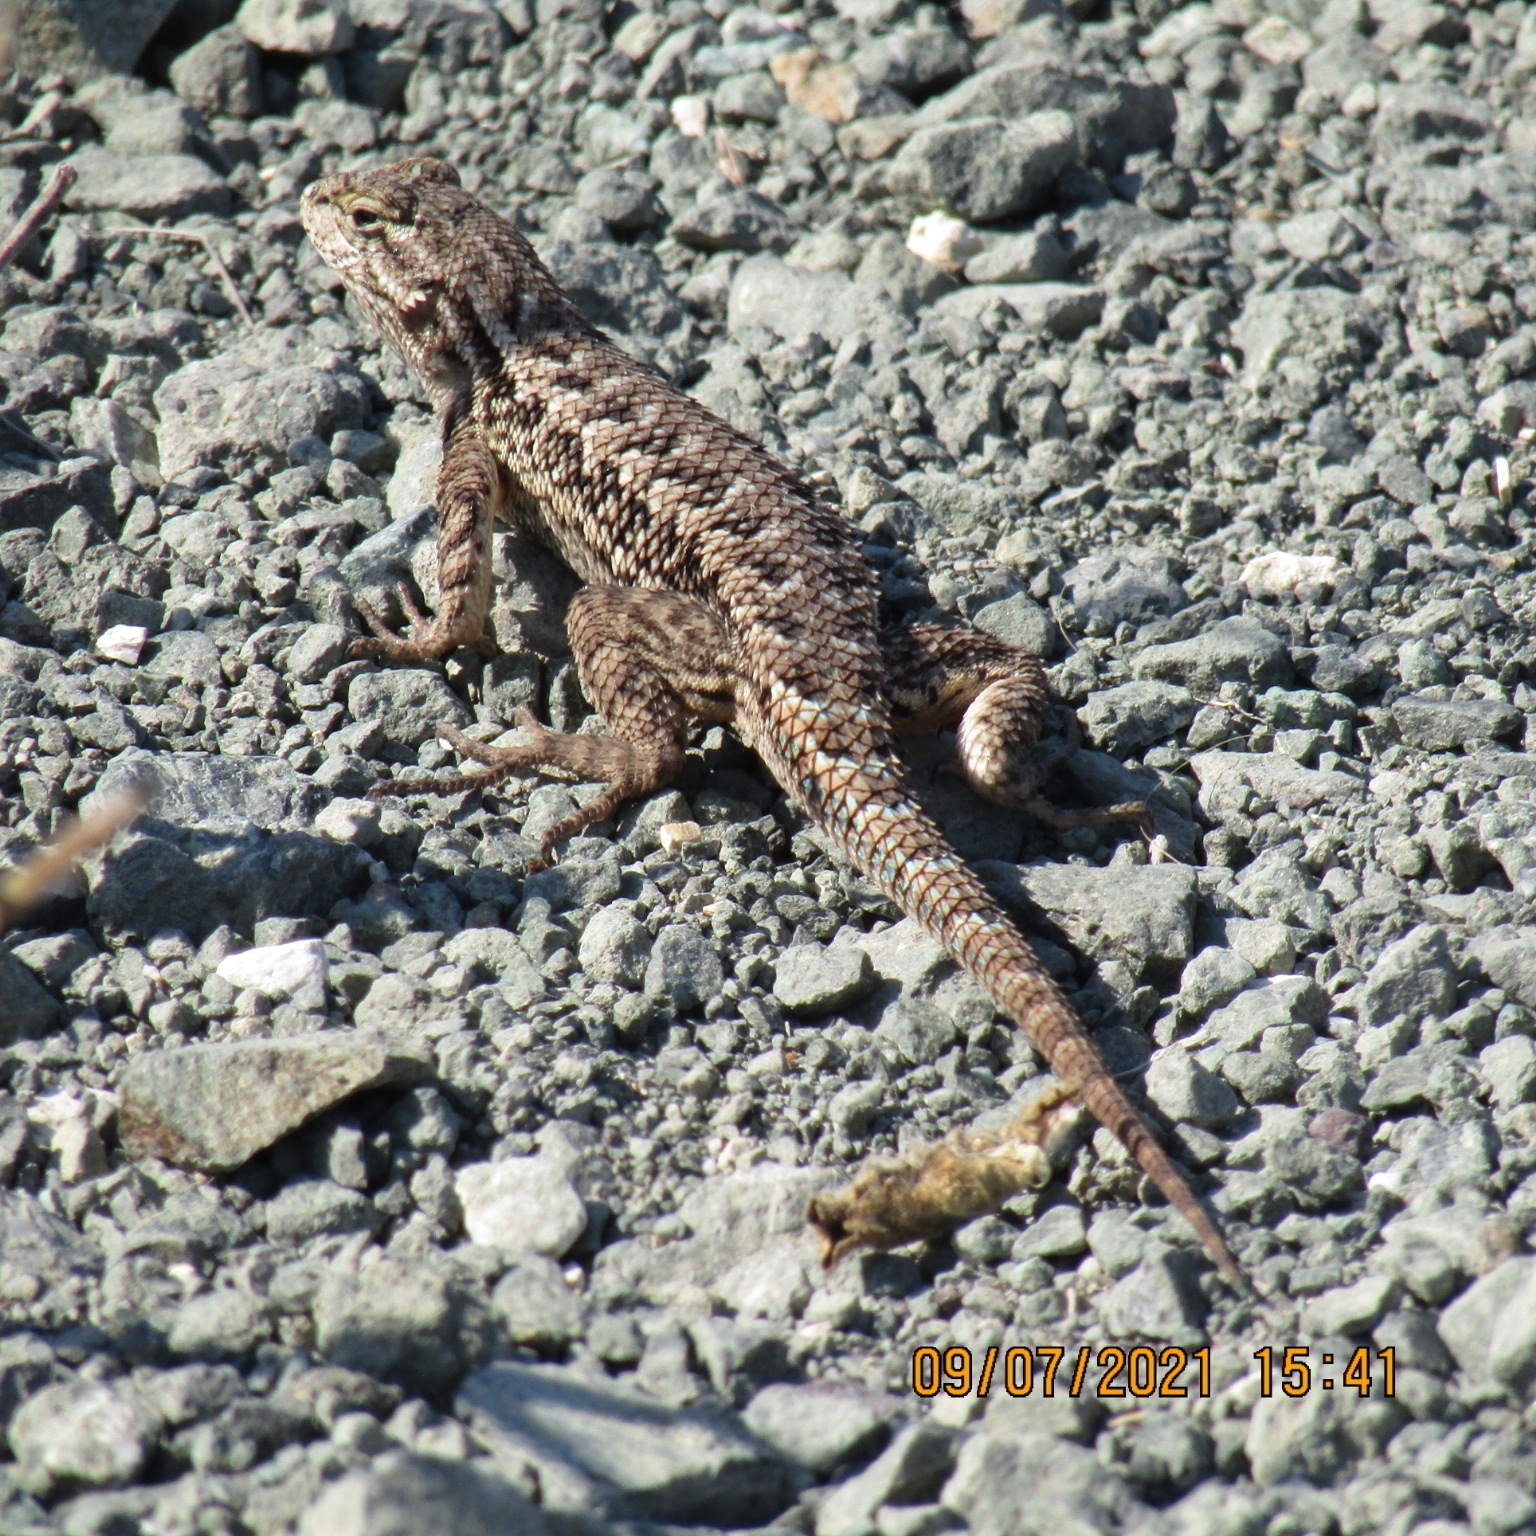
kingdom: Animalia
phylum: Chordata
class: Squamata
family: Phrynosomatidae
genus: Sceloporus
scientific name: Sceloporus occidentalis
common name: Western fence lizard
